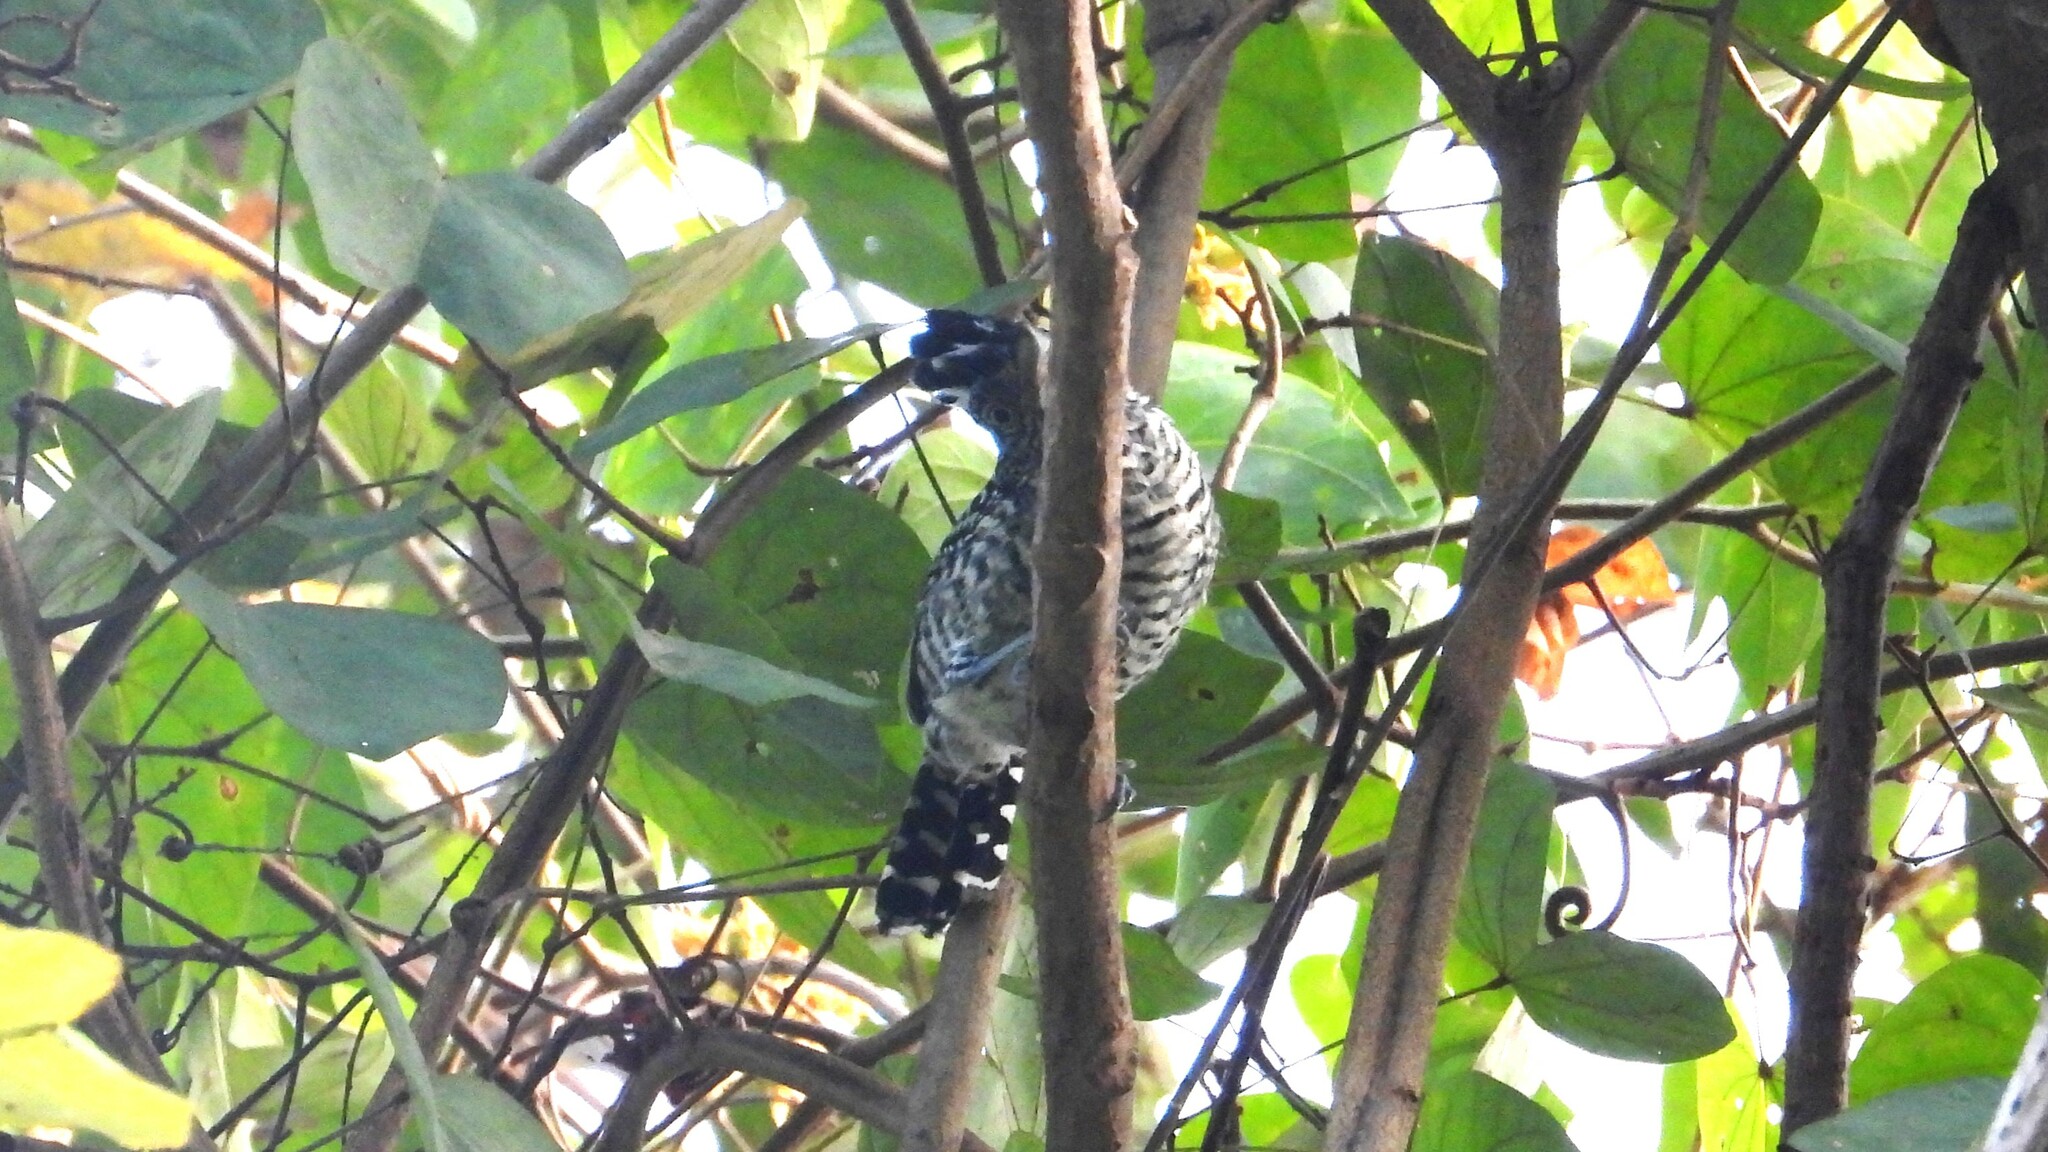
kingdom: Animalia
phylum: Chordata
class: Aves
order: Passeriformes
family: Thamnophilidae
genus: Thamnophilus
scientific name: Thamnophilus doliatus
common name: Barred antshrike
